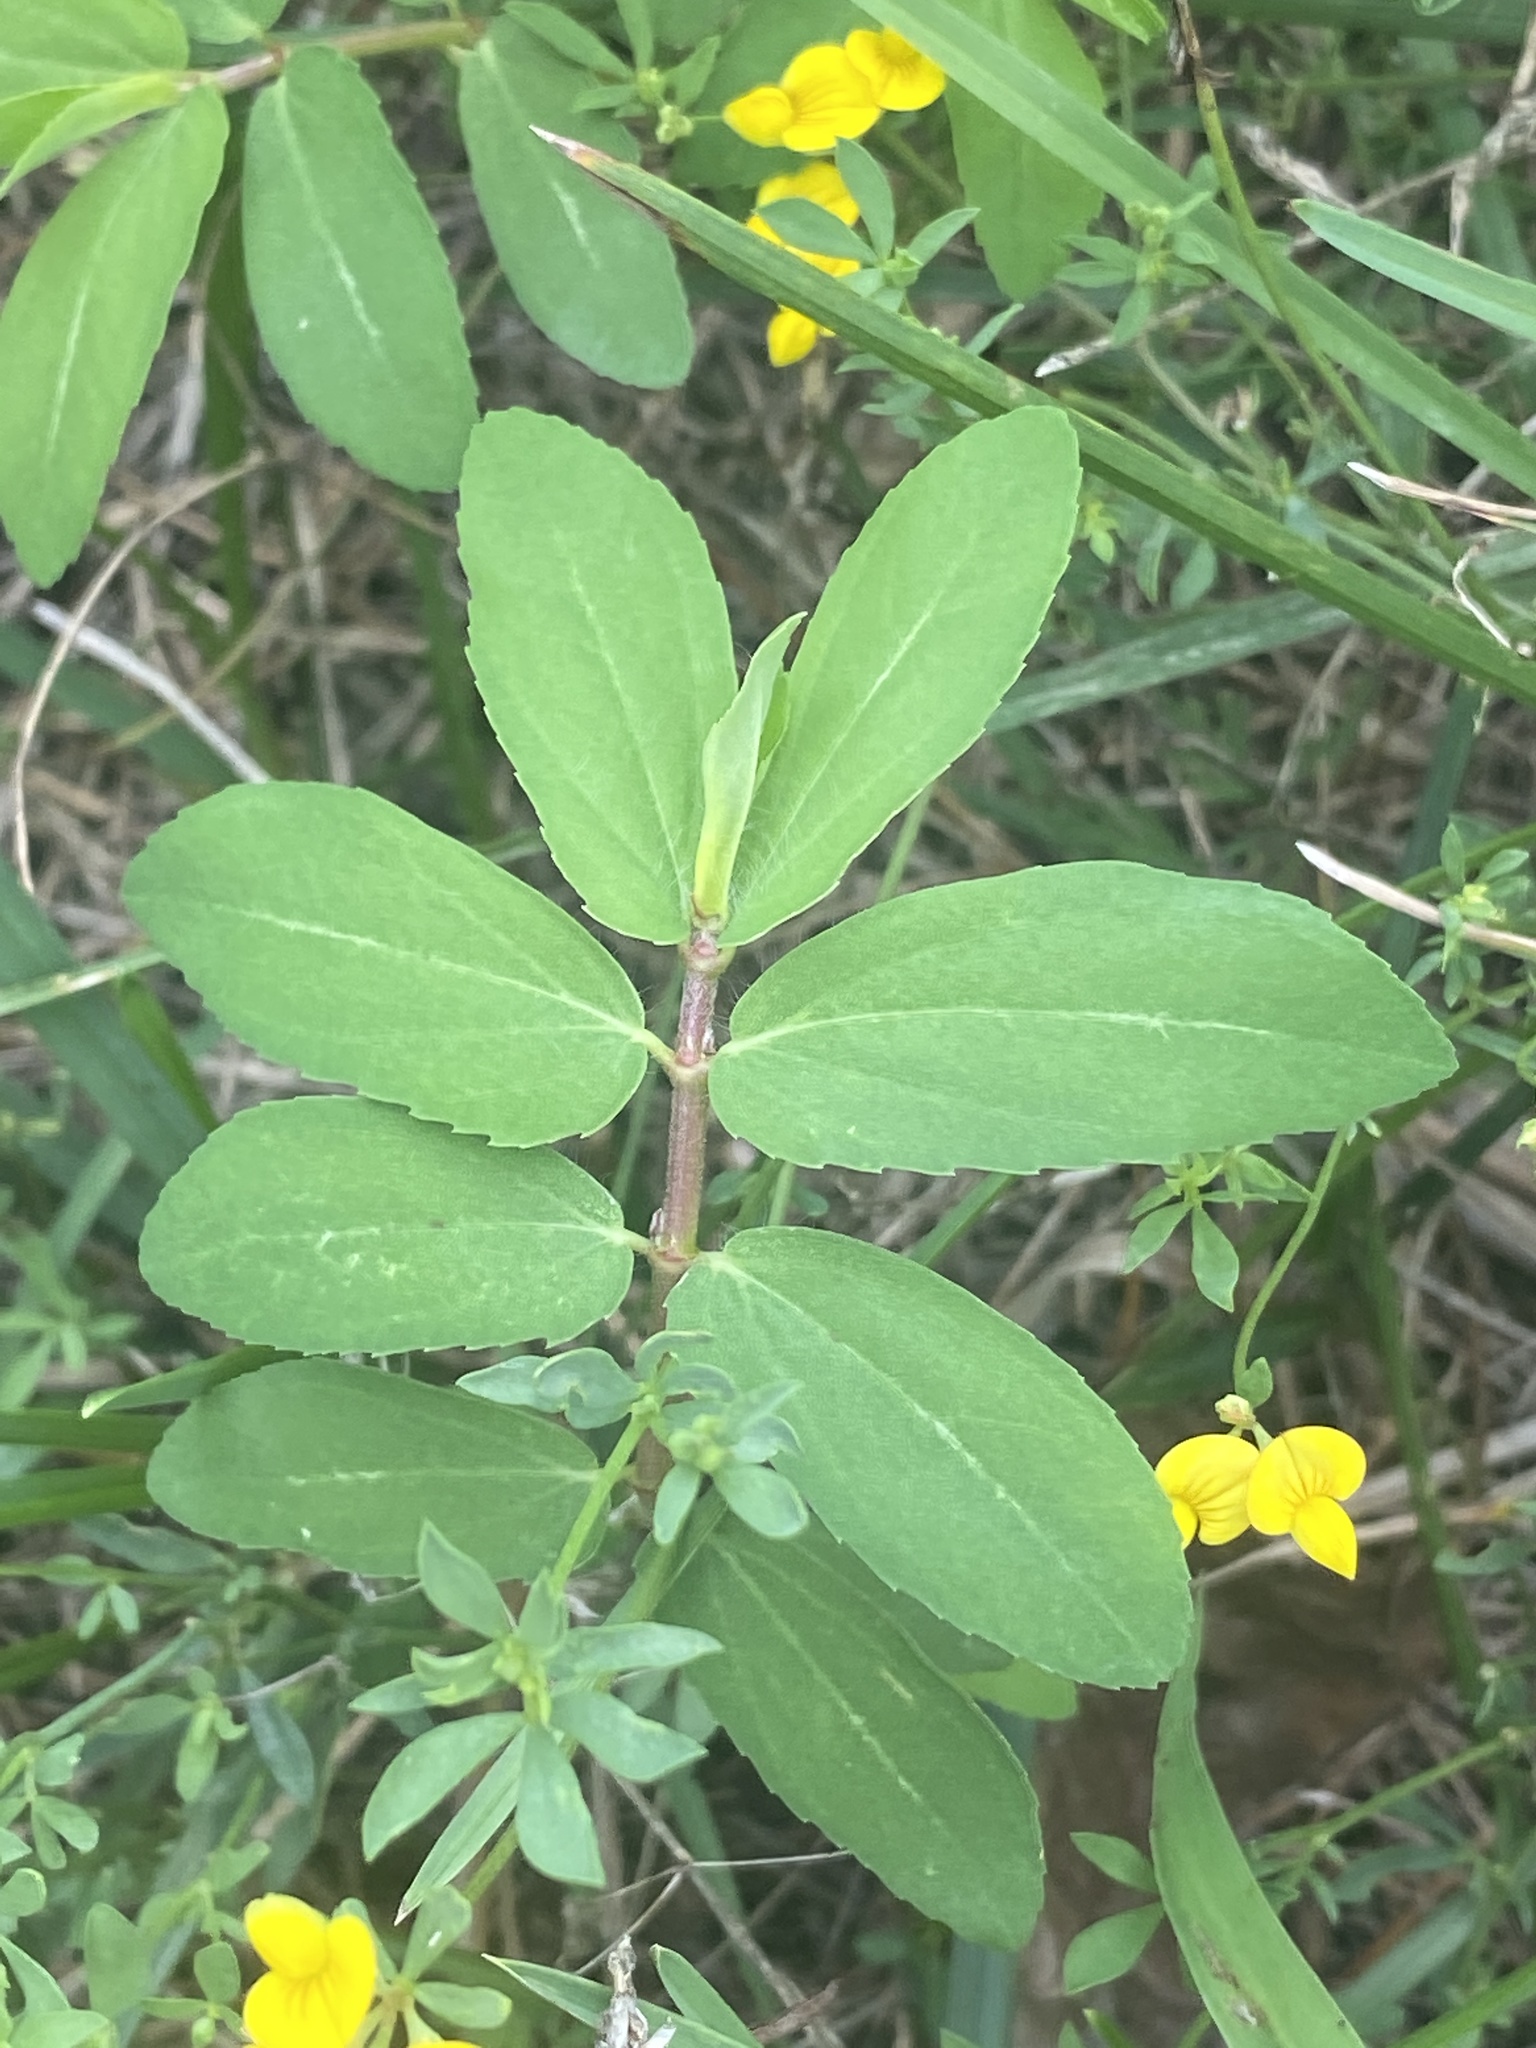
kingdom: Plantae
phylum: Tracheophyta
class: Magnoliopsida
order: Malpighiales
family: Euphorbiaceae
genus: Euphorbia
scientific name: Euphorbia nutans
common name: Eyebane
